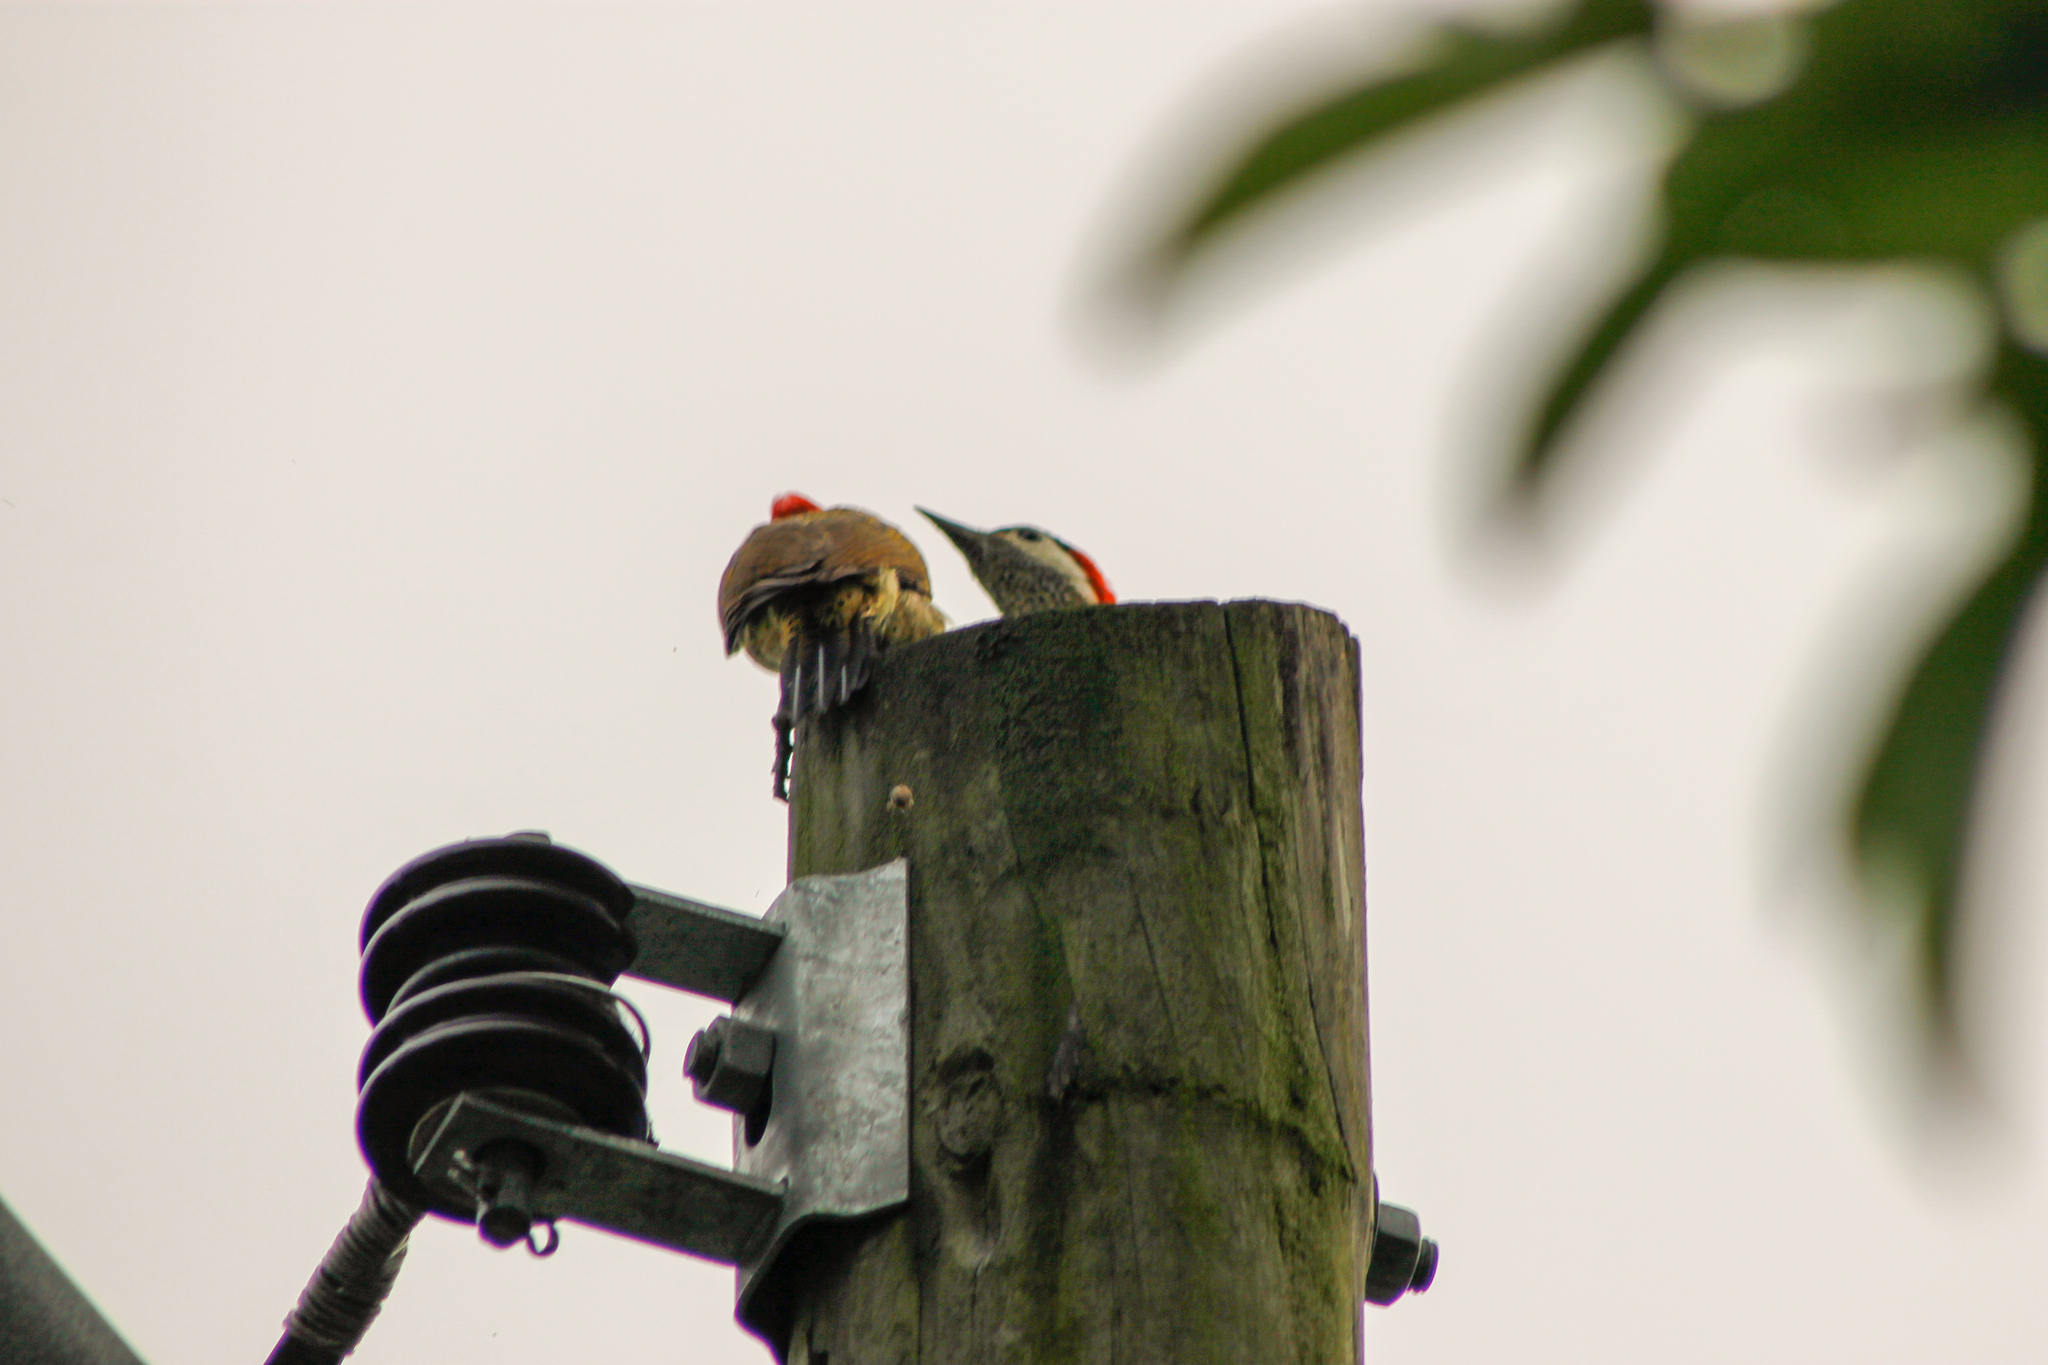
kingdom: Animalia
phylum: Chordata
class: Aves
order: Piciformes
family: Picidae
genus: Colaptes
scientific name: Colaptes punctigula
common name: Spot-breasted woodpecker
